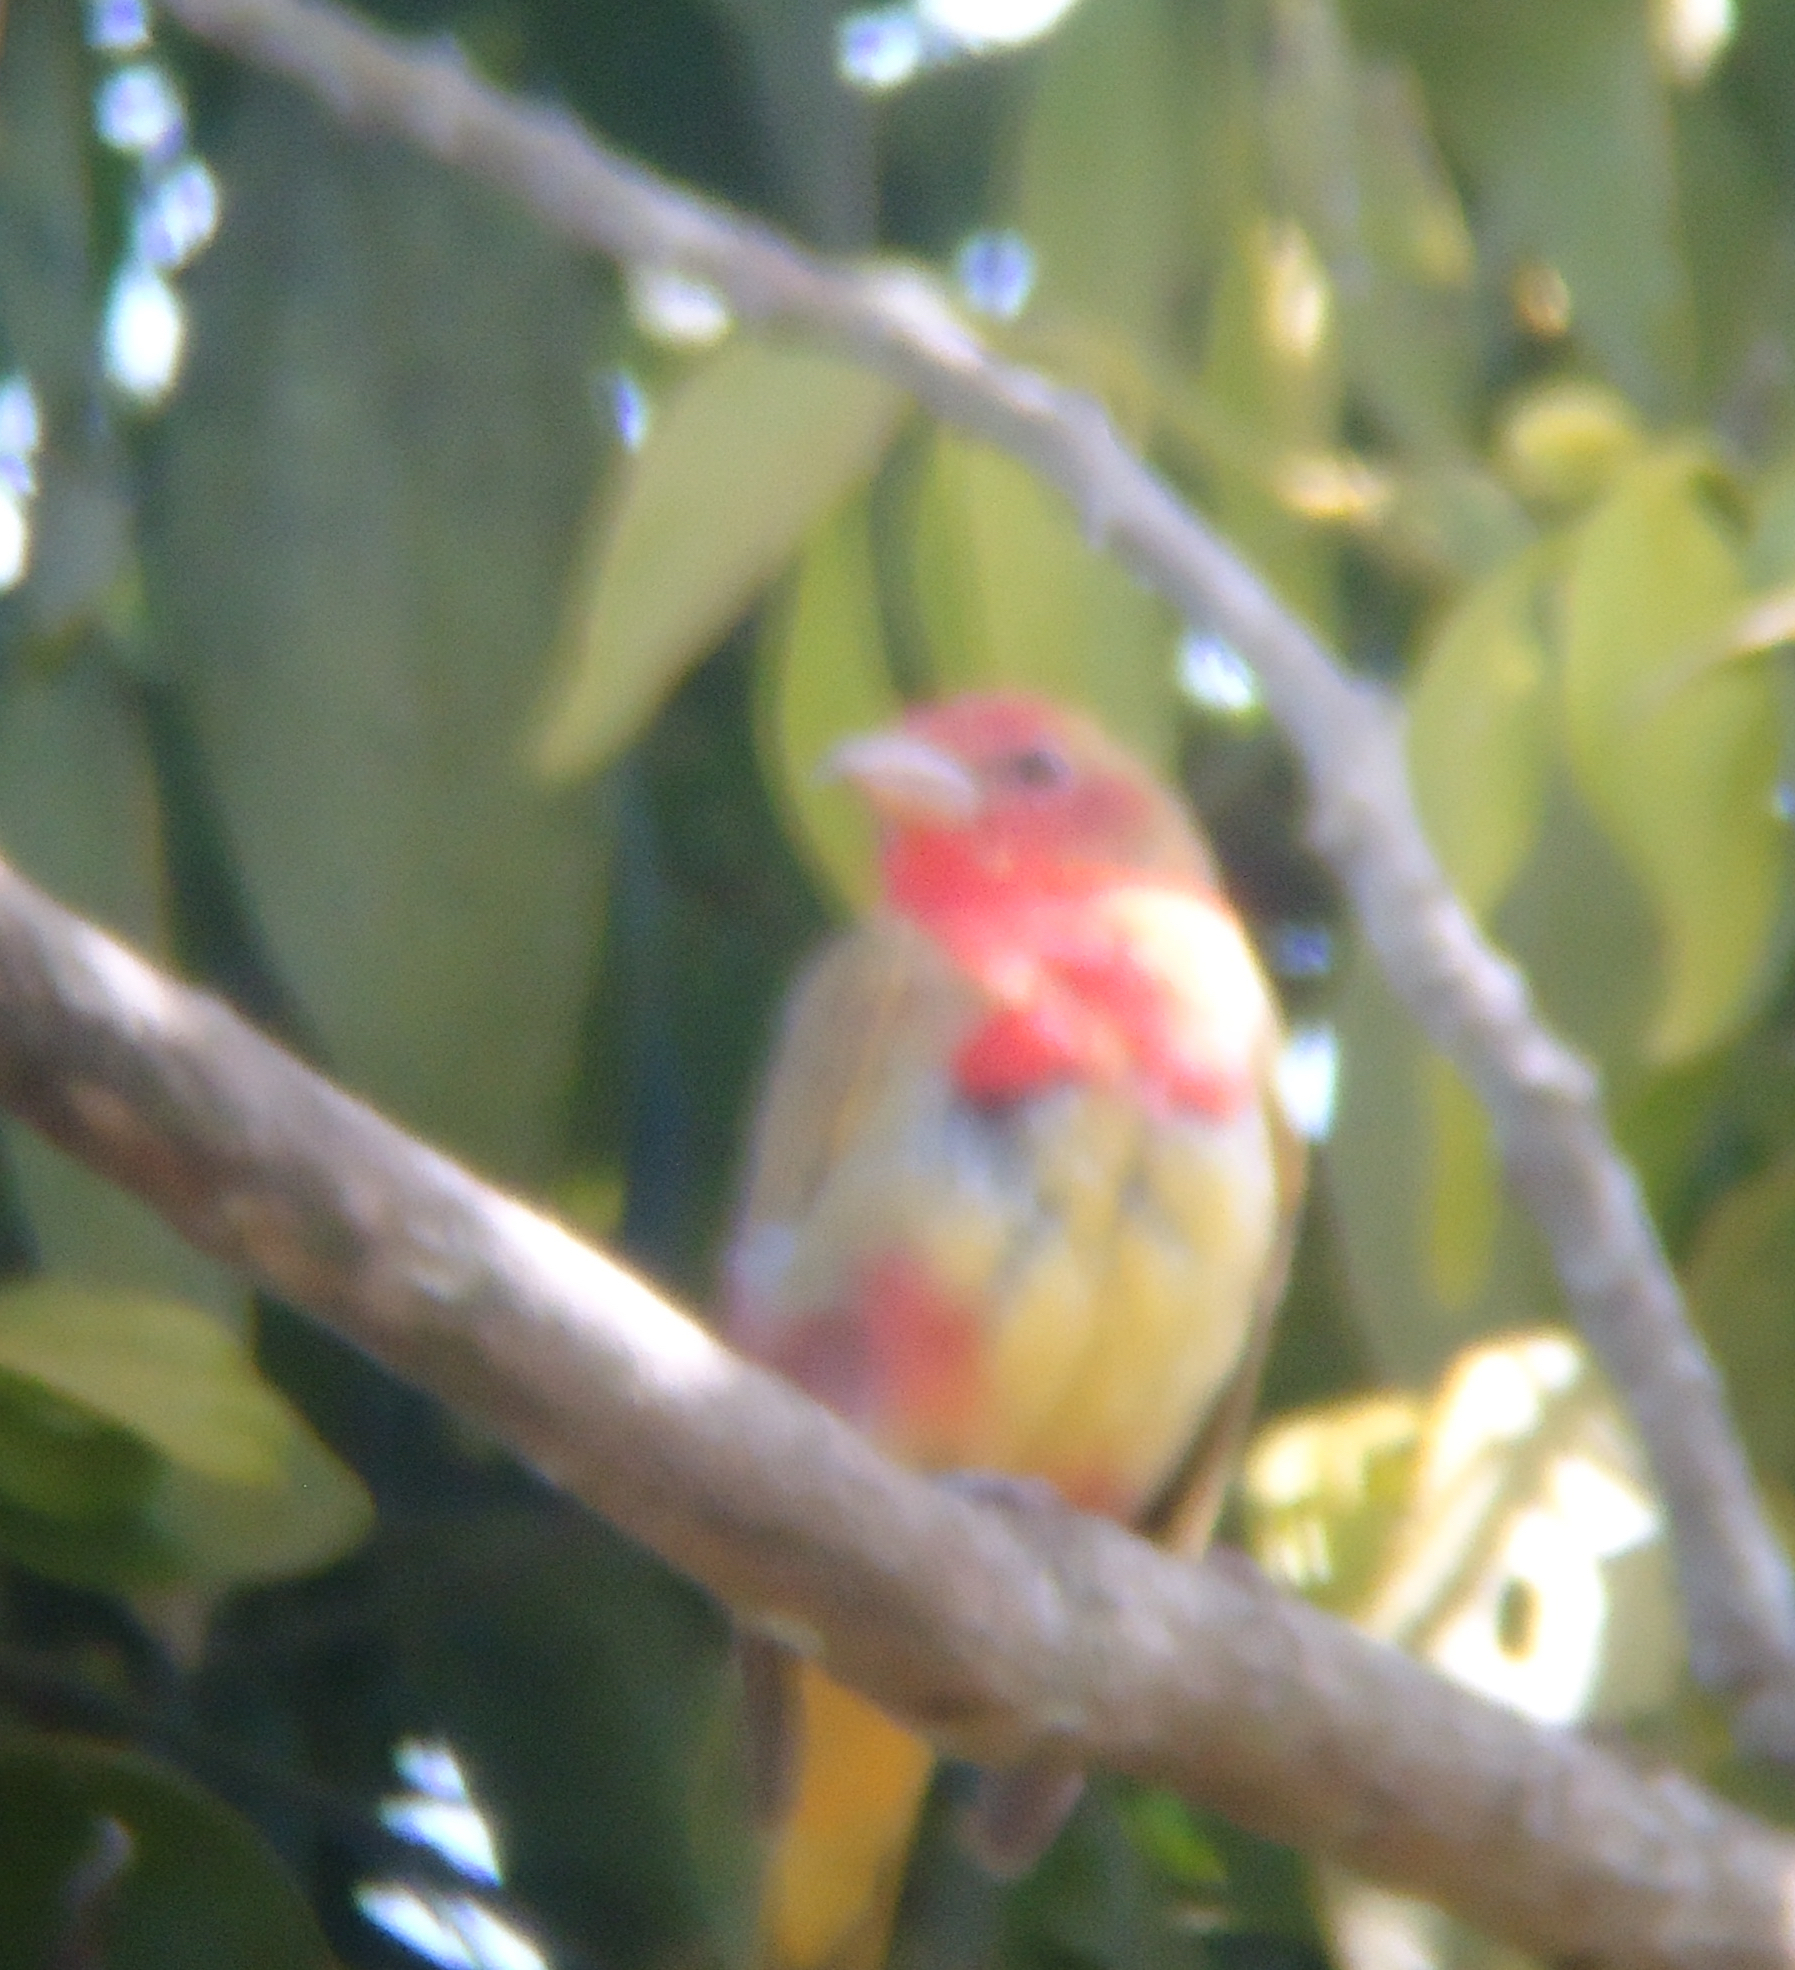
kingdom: Animalia
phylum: Chordata
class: Aves
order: Passeriformes
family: Cardinalidae
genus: Piranga
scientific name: Piranga rubra
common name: Summer tanager
